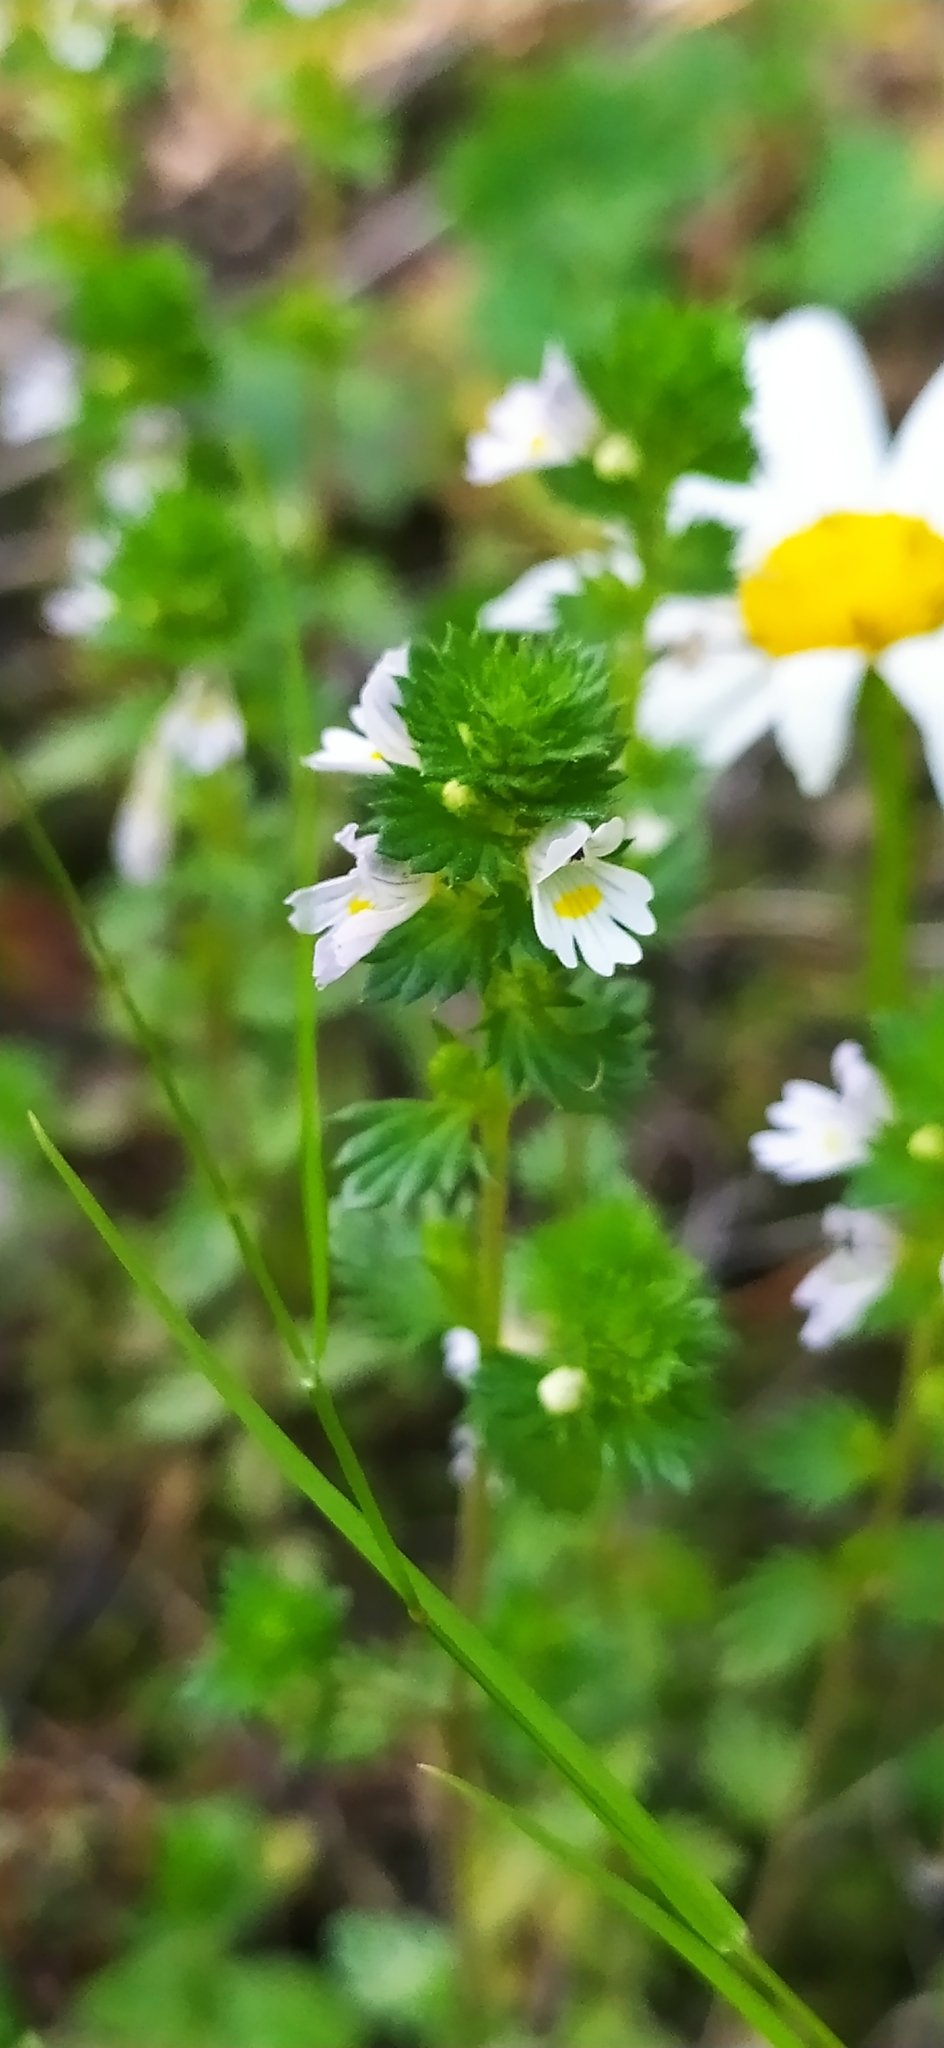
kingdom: Plantae
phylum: Tracheophyta
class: Magnoliopsida
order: Lamiales
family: Orobanchaceae
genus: Euphrasia
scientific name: Euphrasia stricta
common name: Drug eyebright
